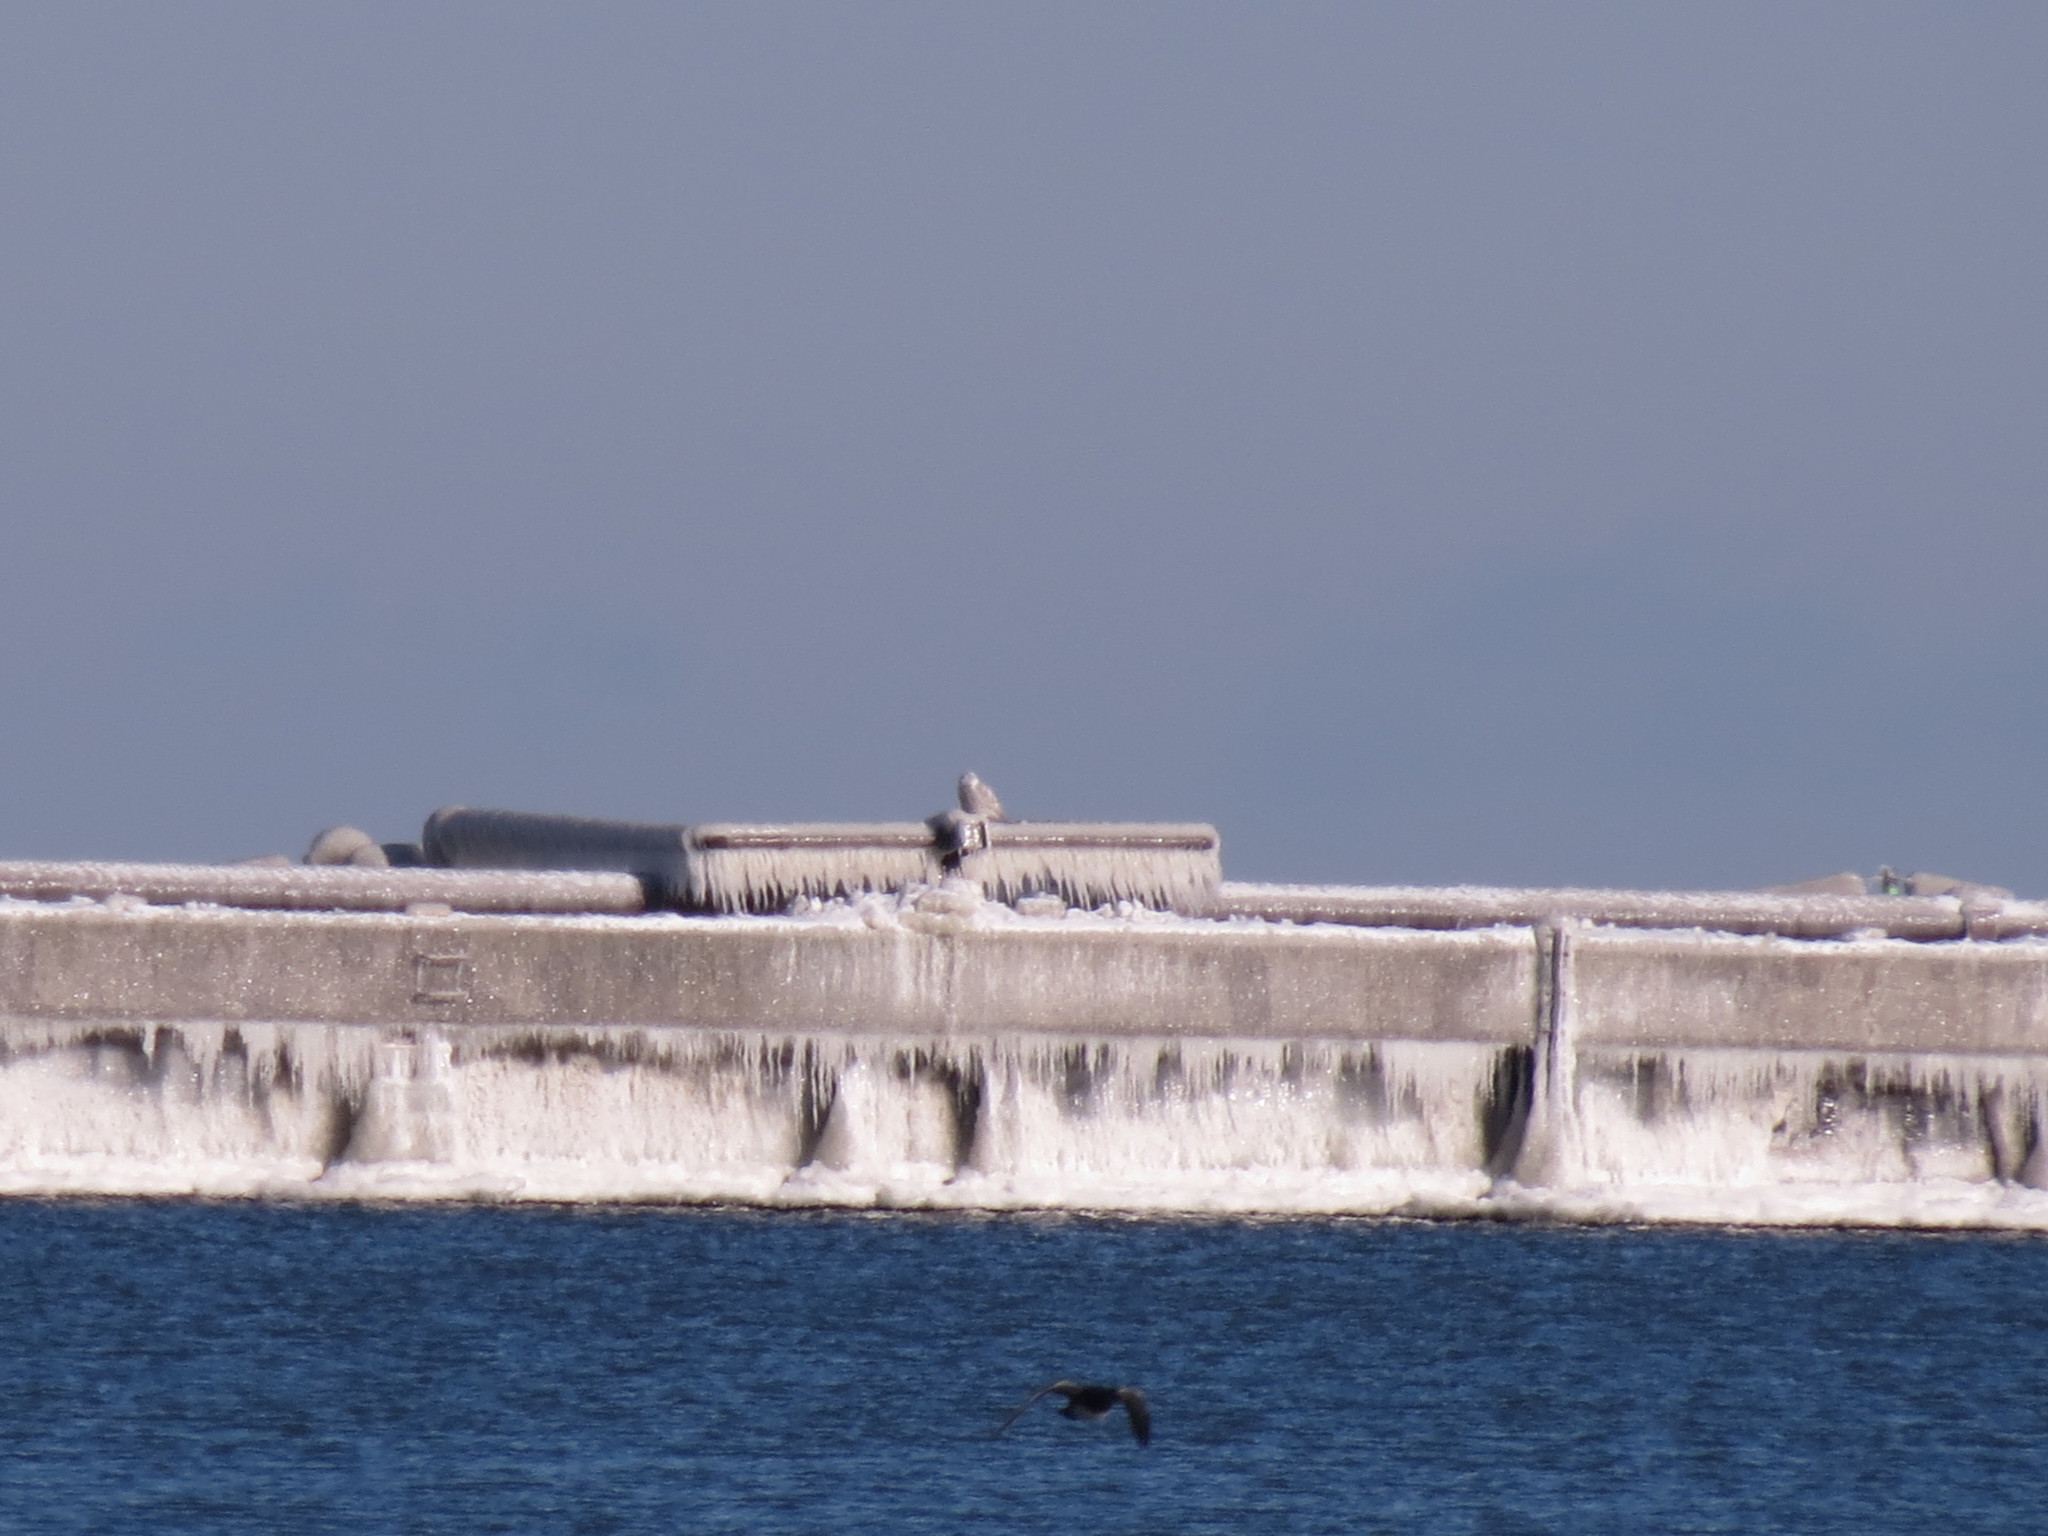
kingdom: Animalia
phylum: Chordata
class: Aves
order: Strigiformes
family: Strigidae
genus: Bubo
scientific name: Bubo scandiacus
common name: Snowy owl
